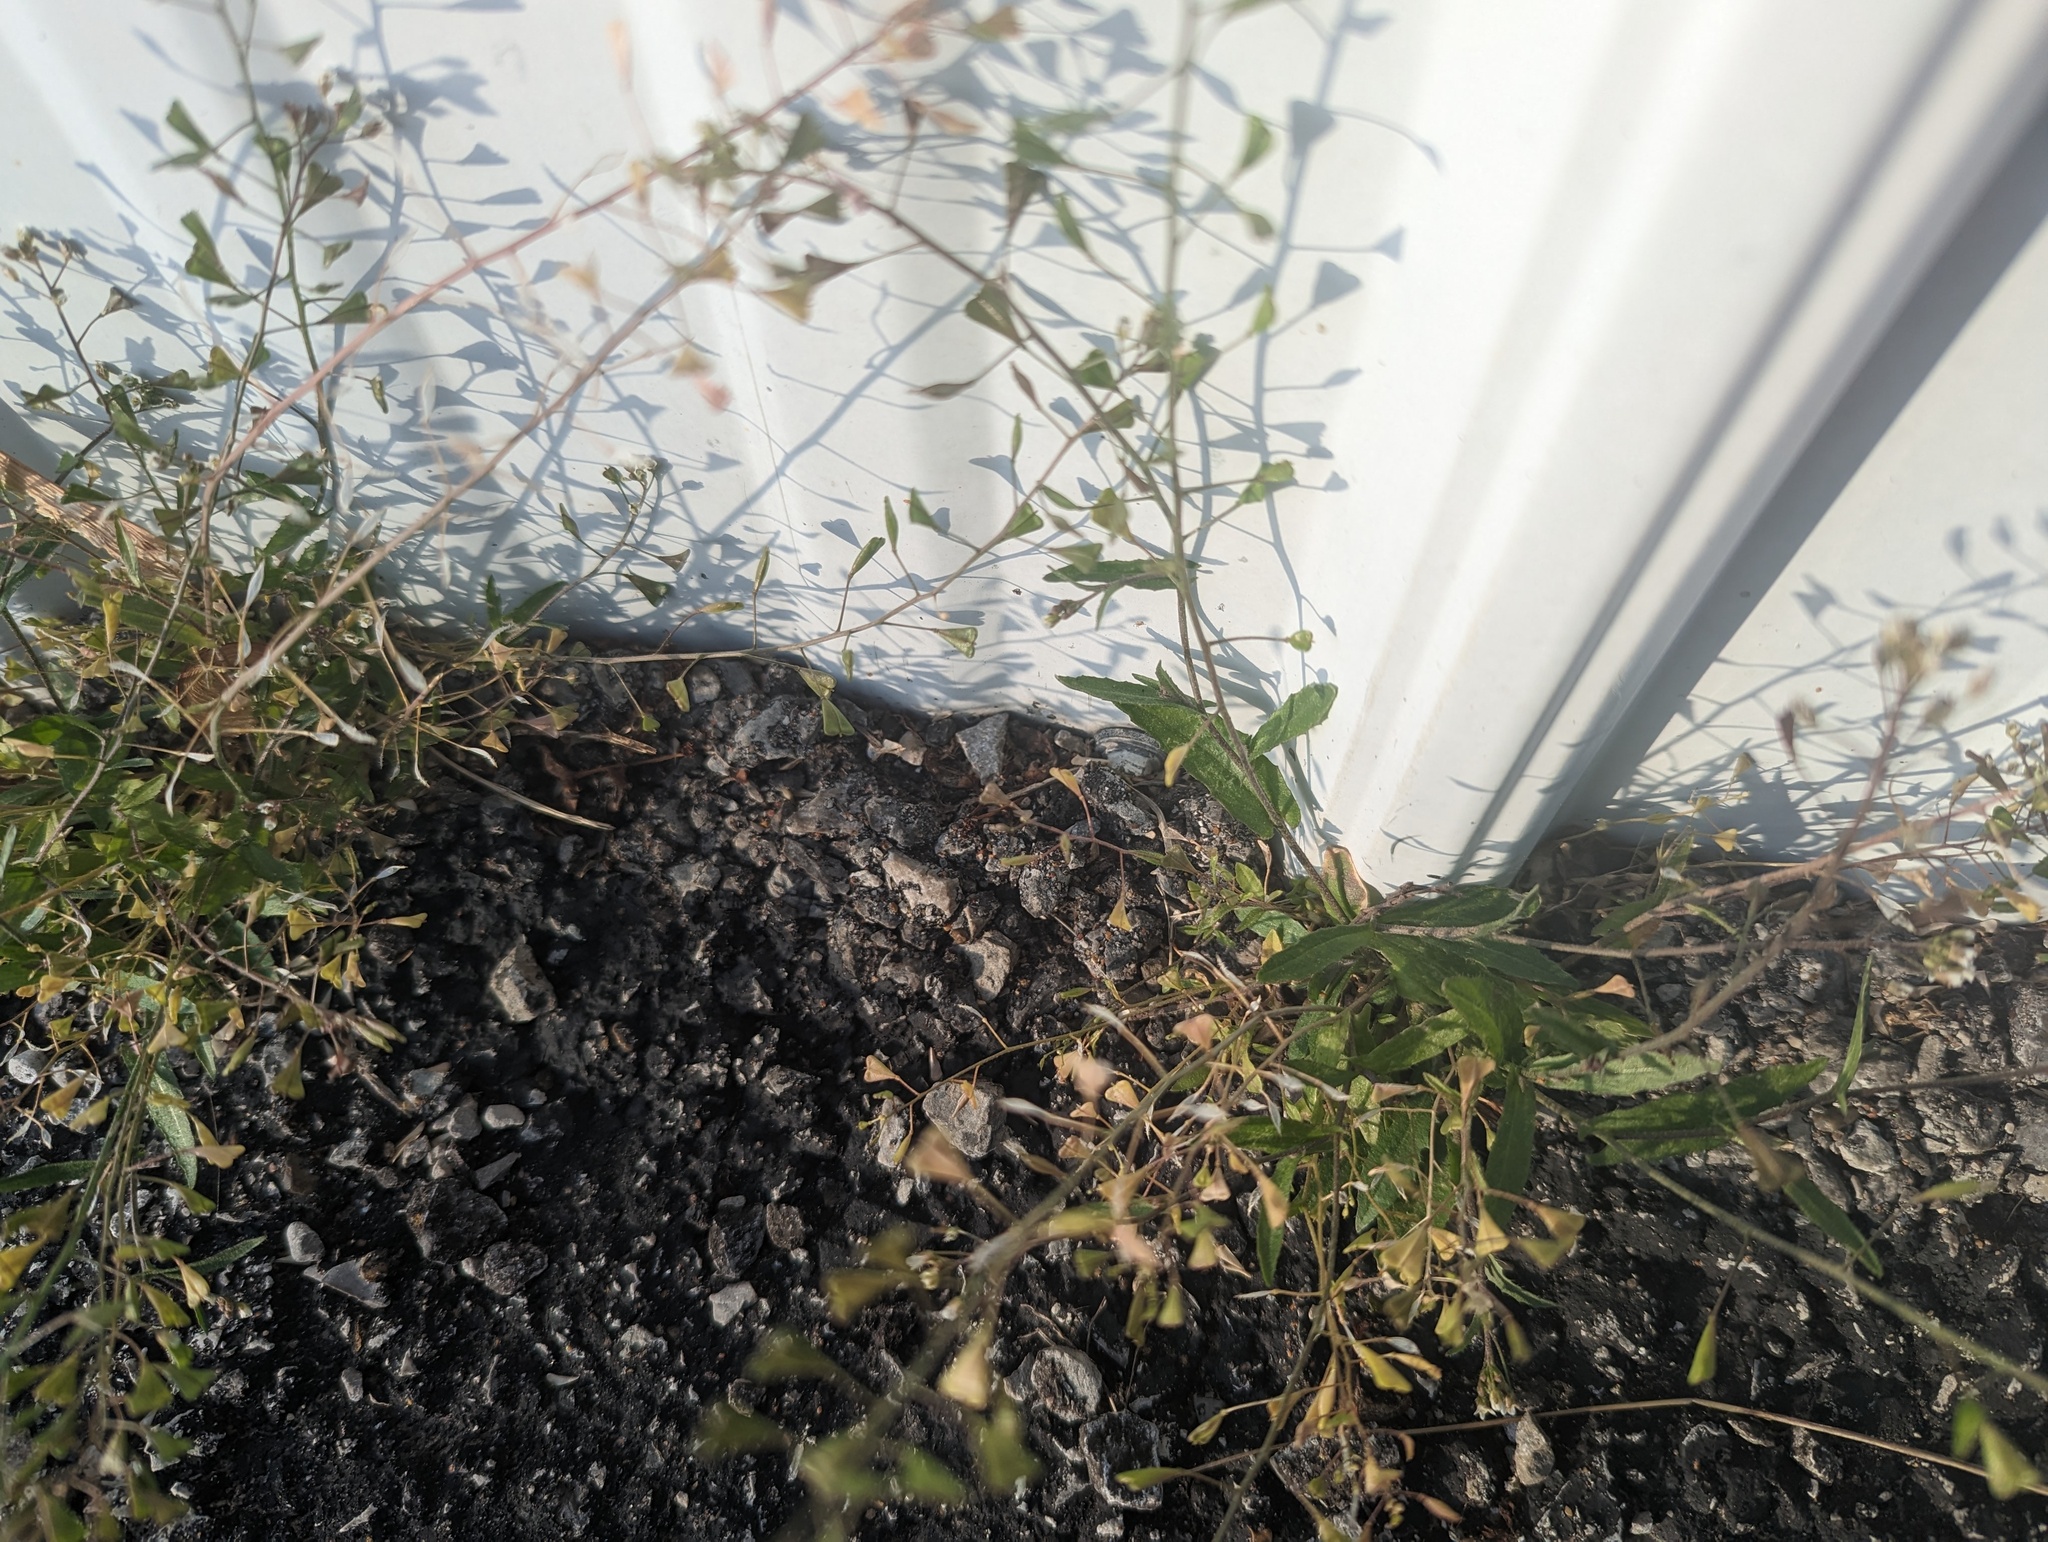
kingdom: Plantae
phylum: Tracheophyta
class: Magnoliopsida
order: Brassicales
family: Brassicaceae
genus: Capsella
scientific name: Capsella bursa-pastoris
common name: Shepherd's purse
